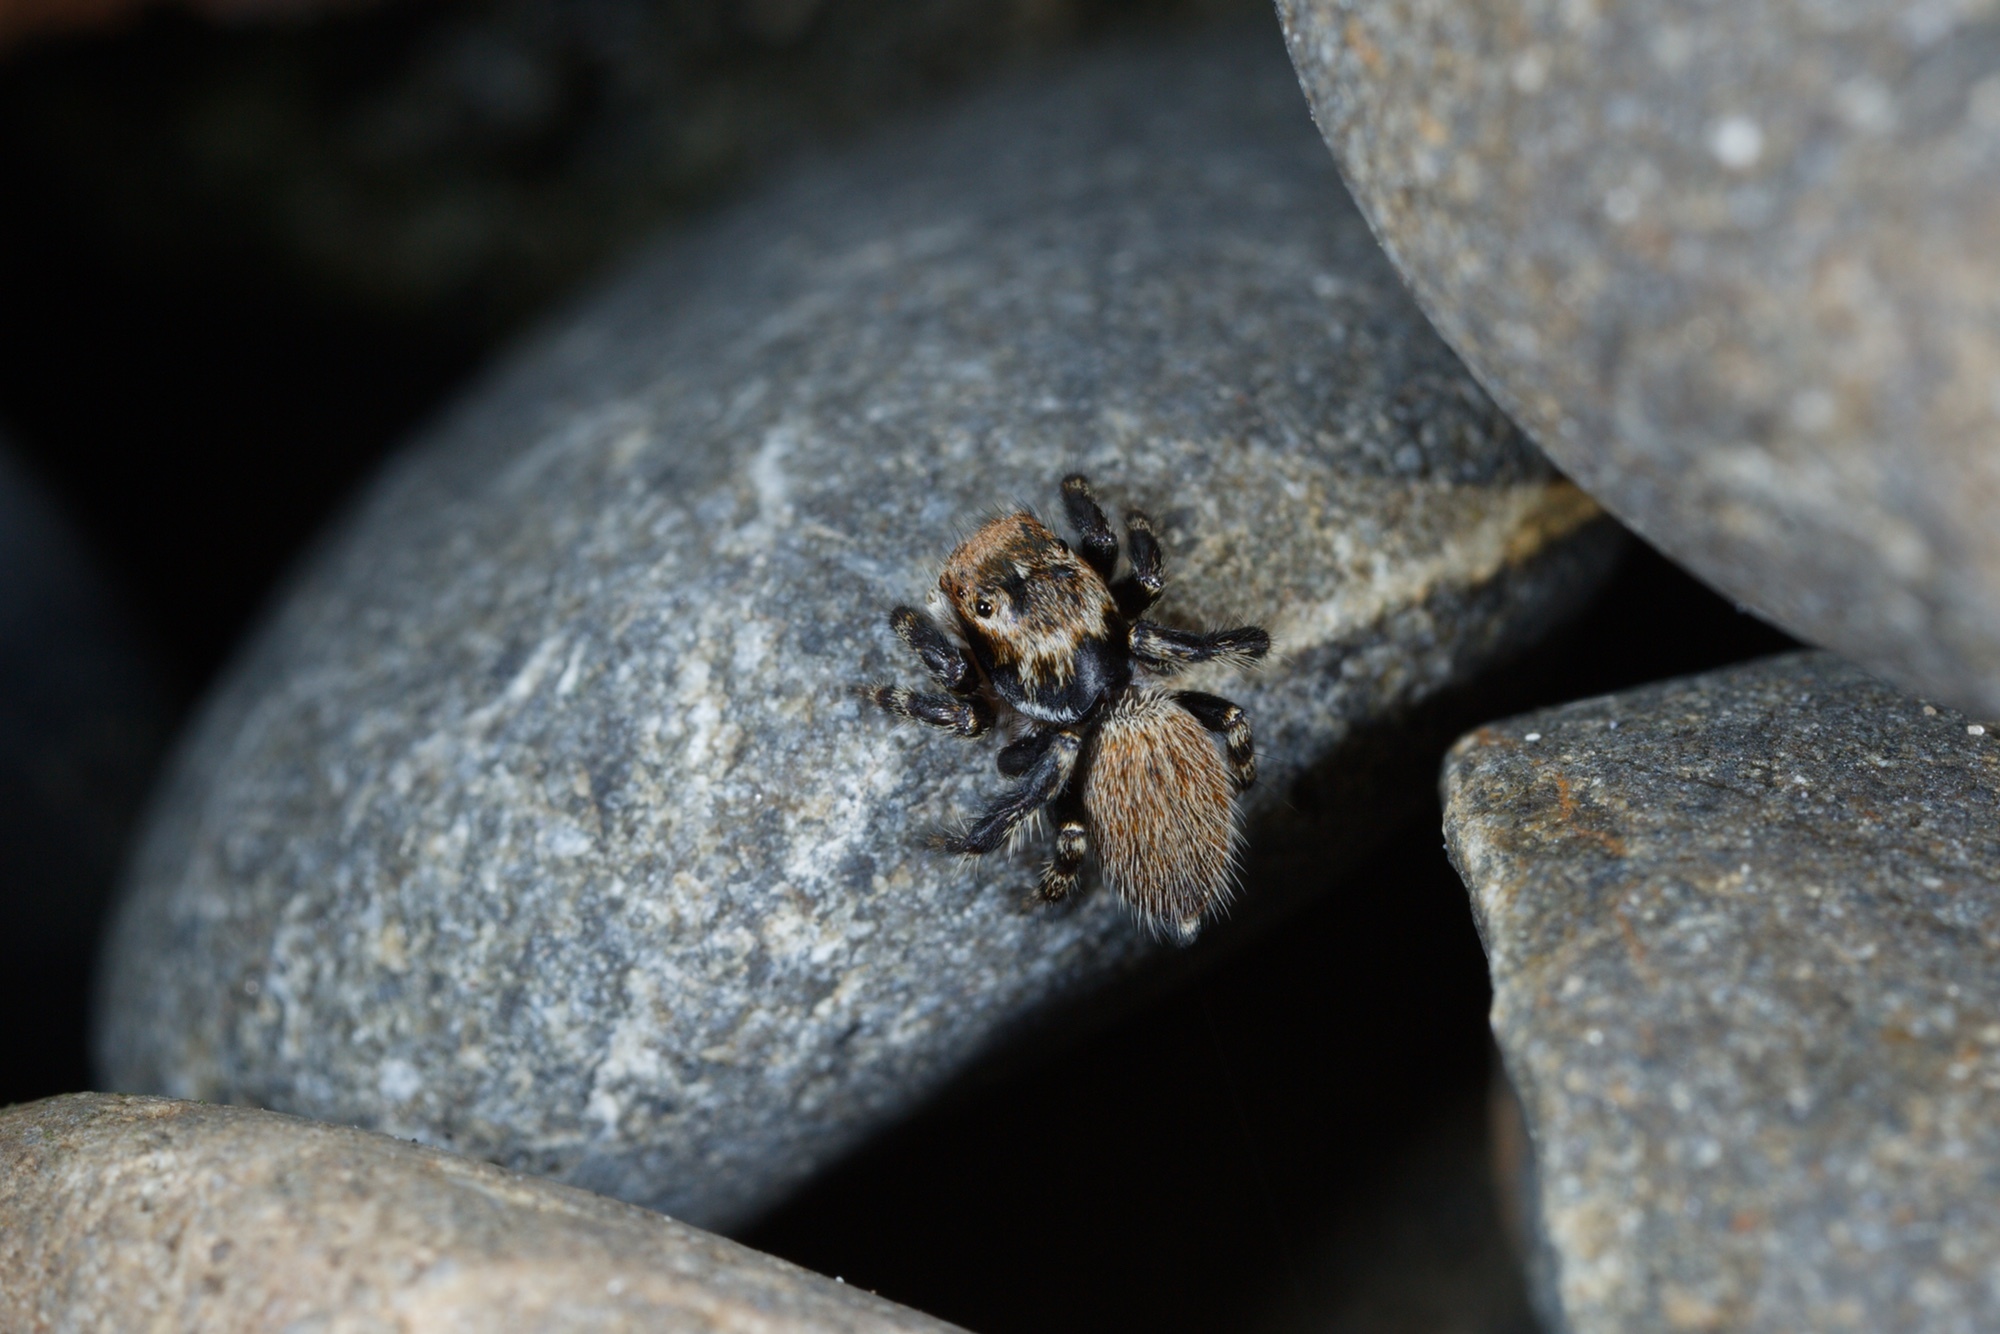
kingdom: Animalia
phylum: Arthropoda
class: Arachnida
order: Araneae
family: Salticidae
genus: Maratus
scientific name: Maratus griseus
